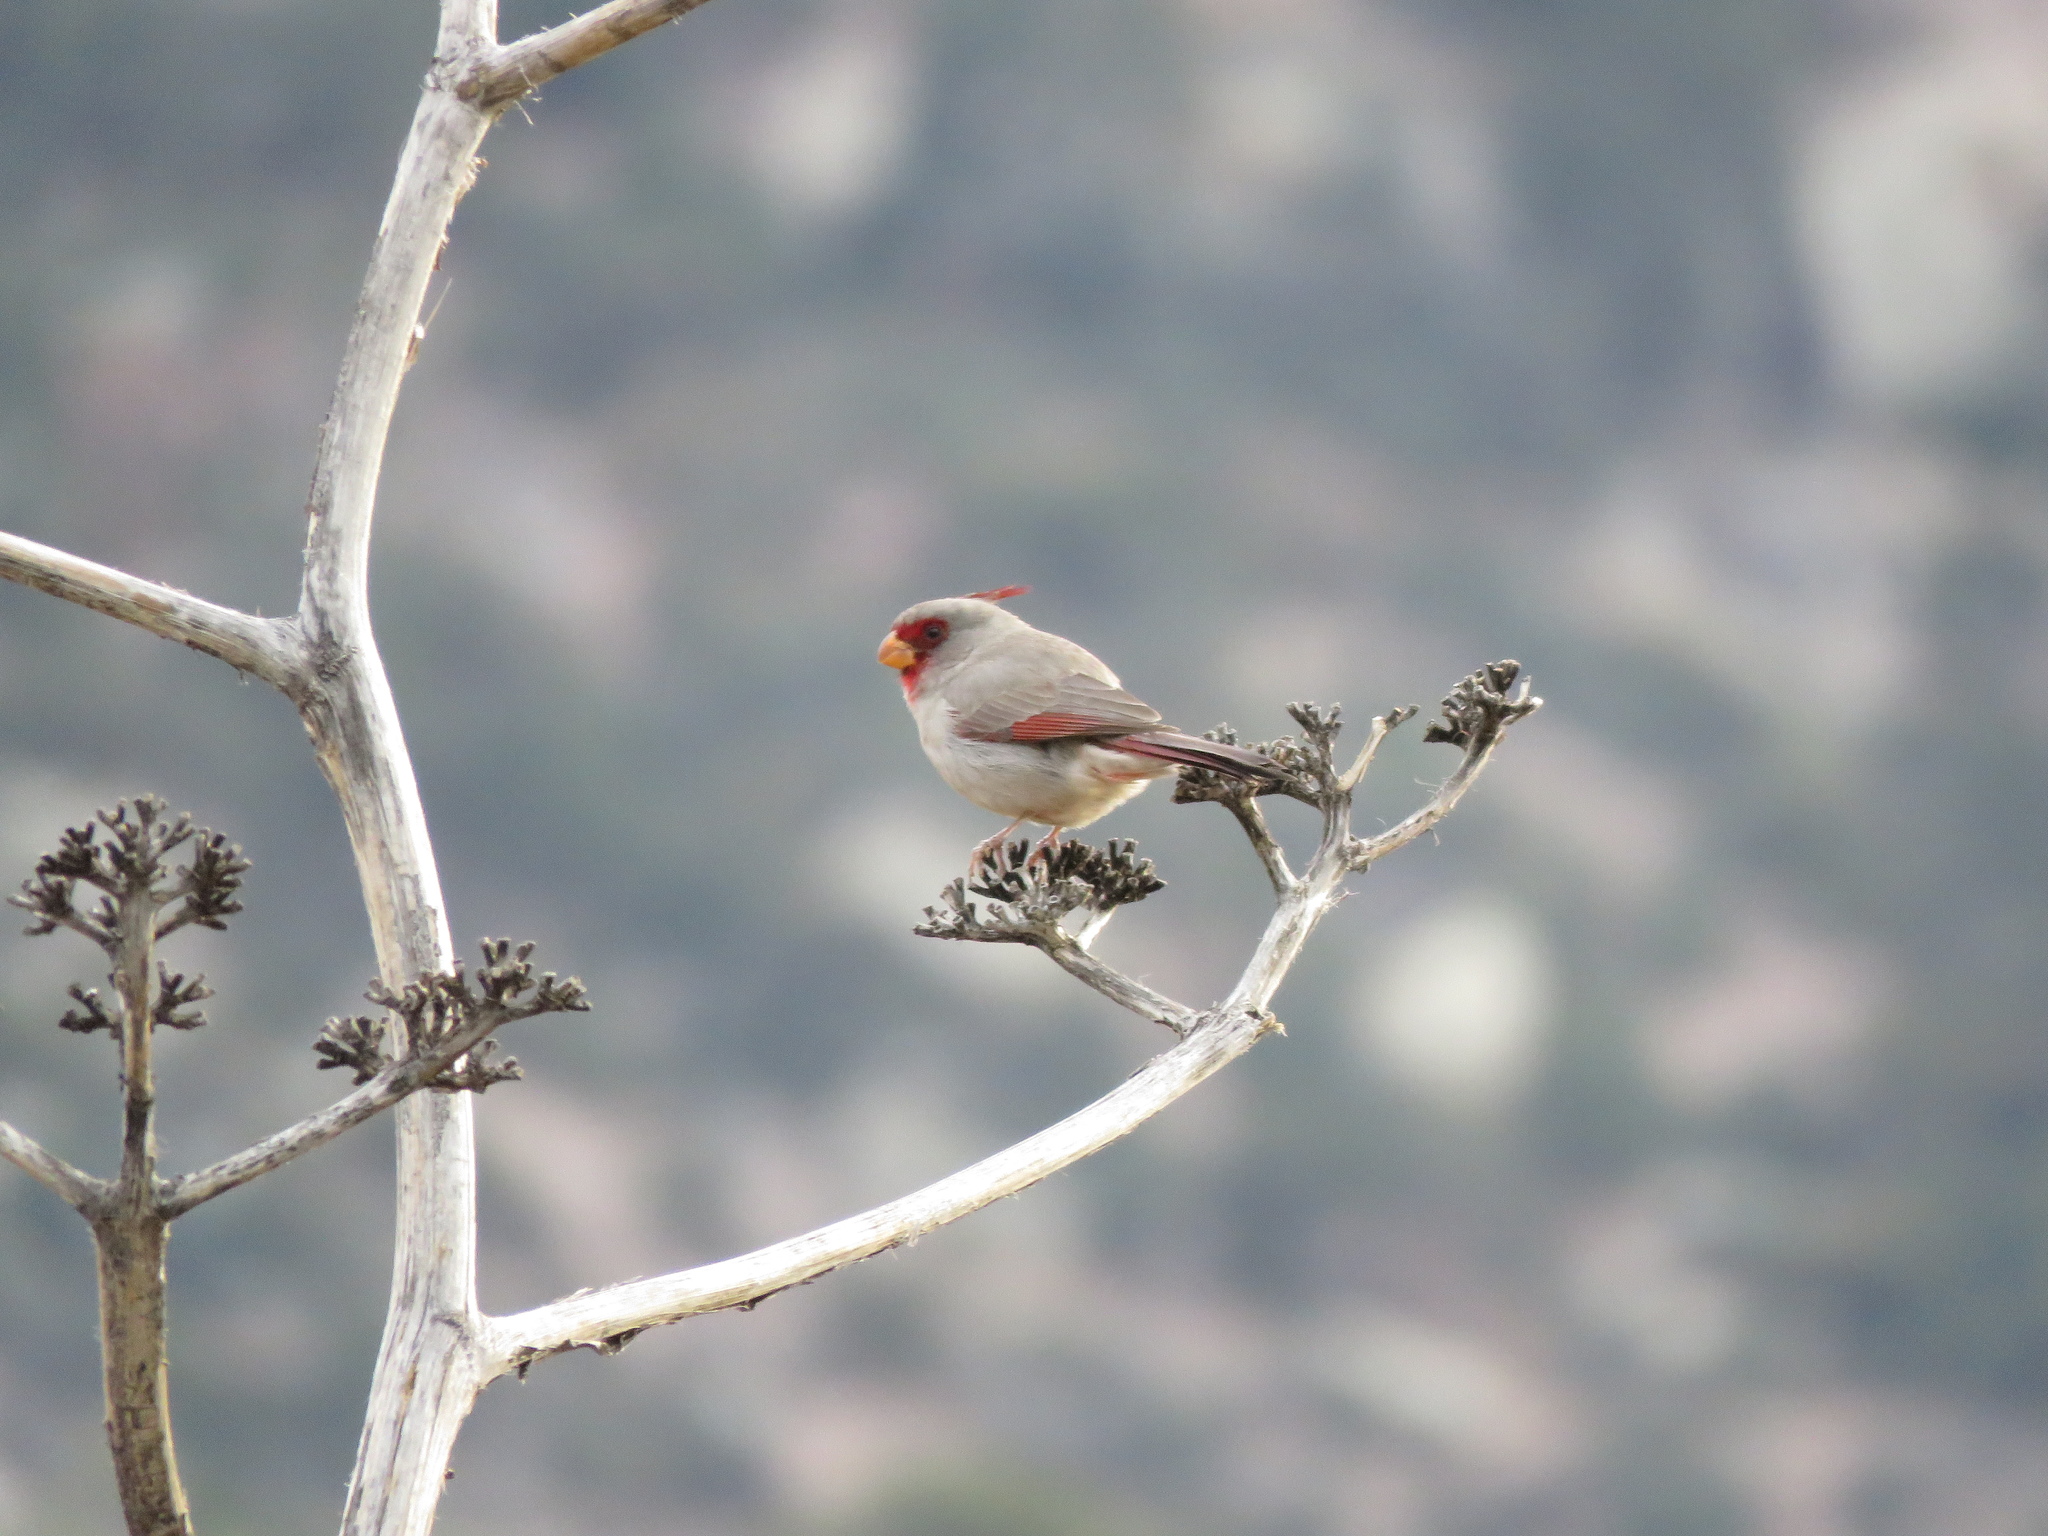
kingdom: Animalia
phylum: Chordata
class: Aves
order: Passeriformes
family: Cardinalidae
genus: Cardinalis
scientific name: Cardinalis sinuatus
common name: Pyrrhuloxia
